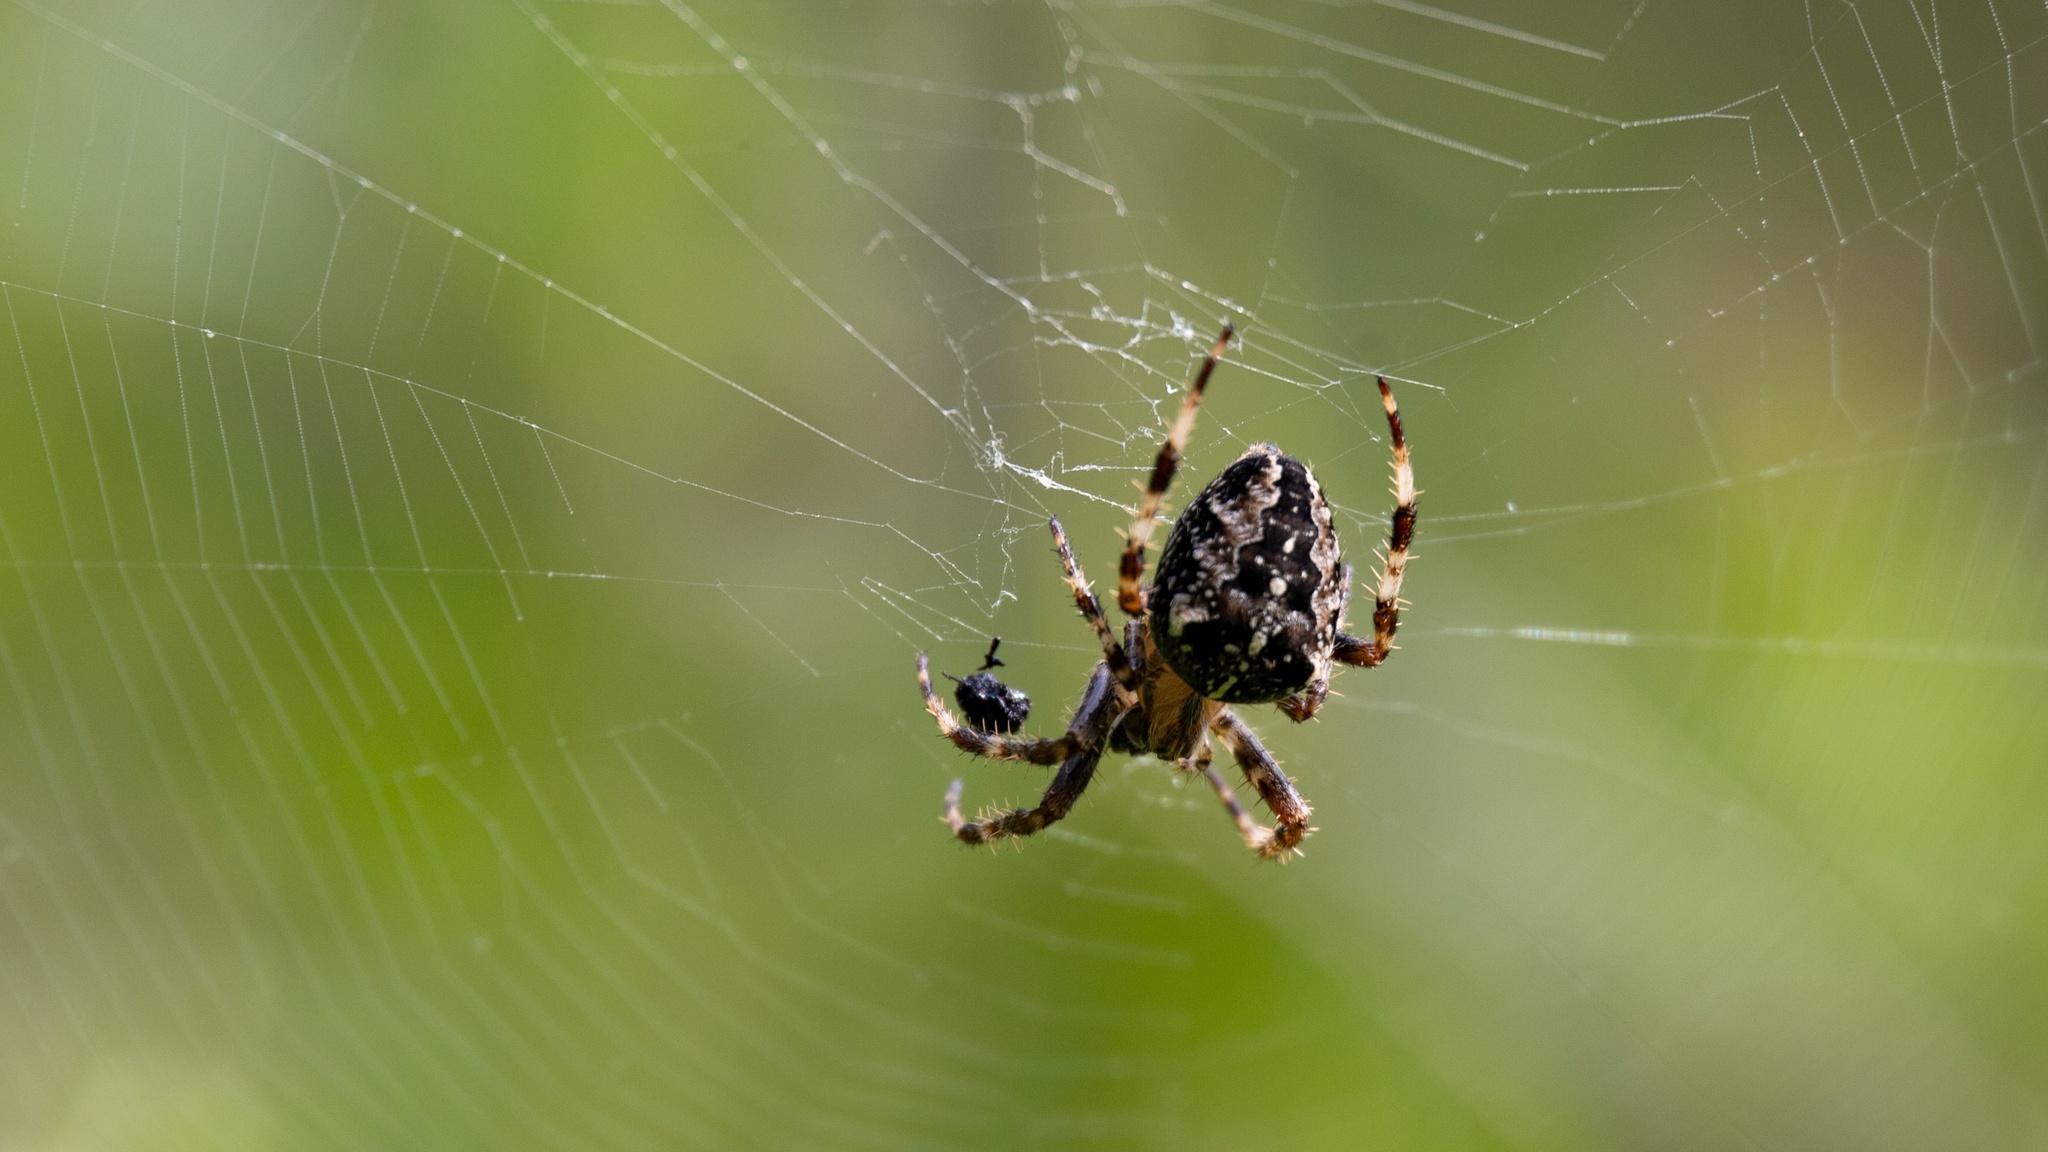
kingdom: Animalia
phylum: Arthropoda
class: Arachnida
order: Araneae
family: Araneidae
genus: Araneus
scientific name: Araneus diadematus
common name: Cross orbweaver
